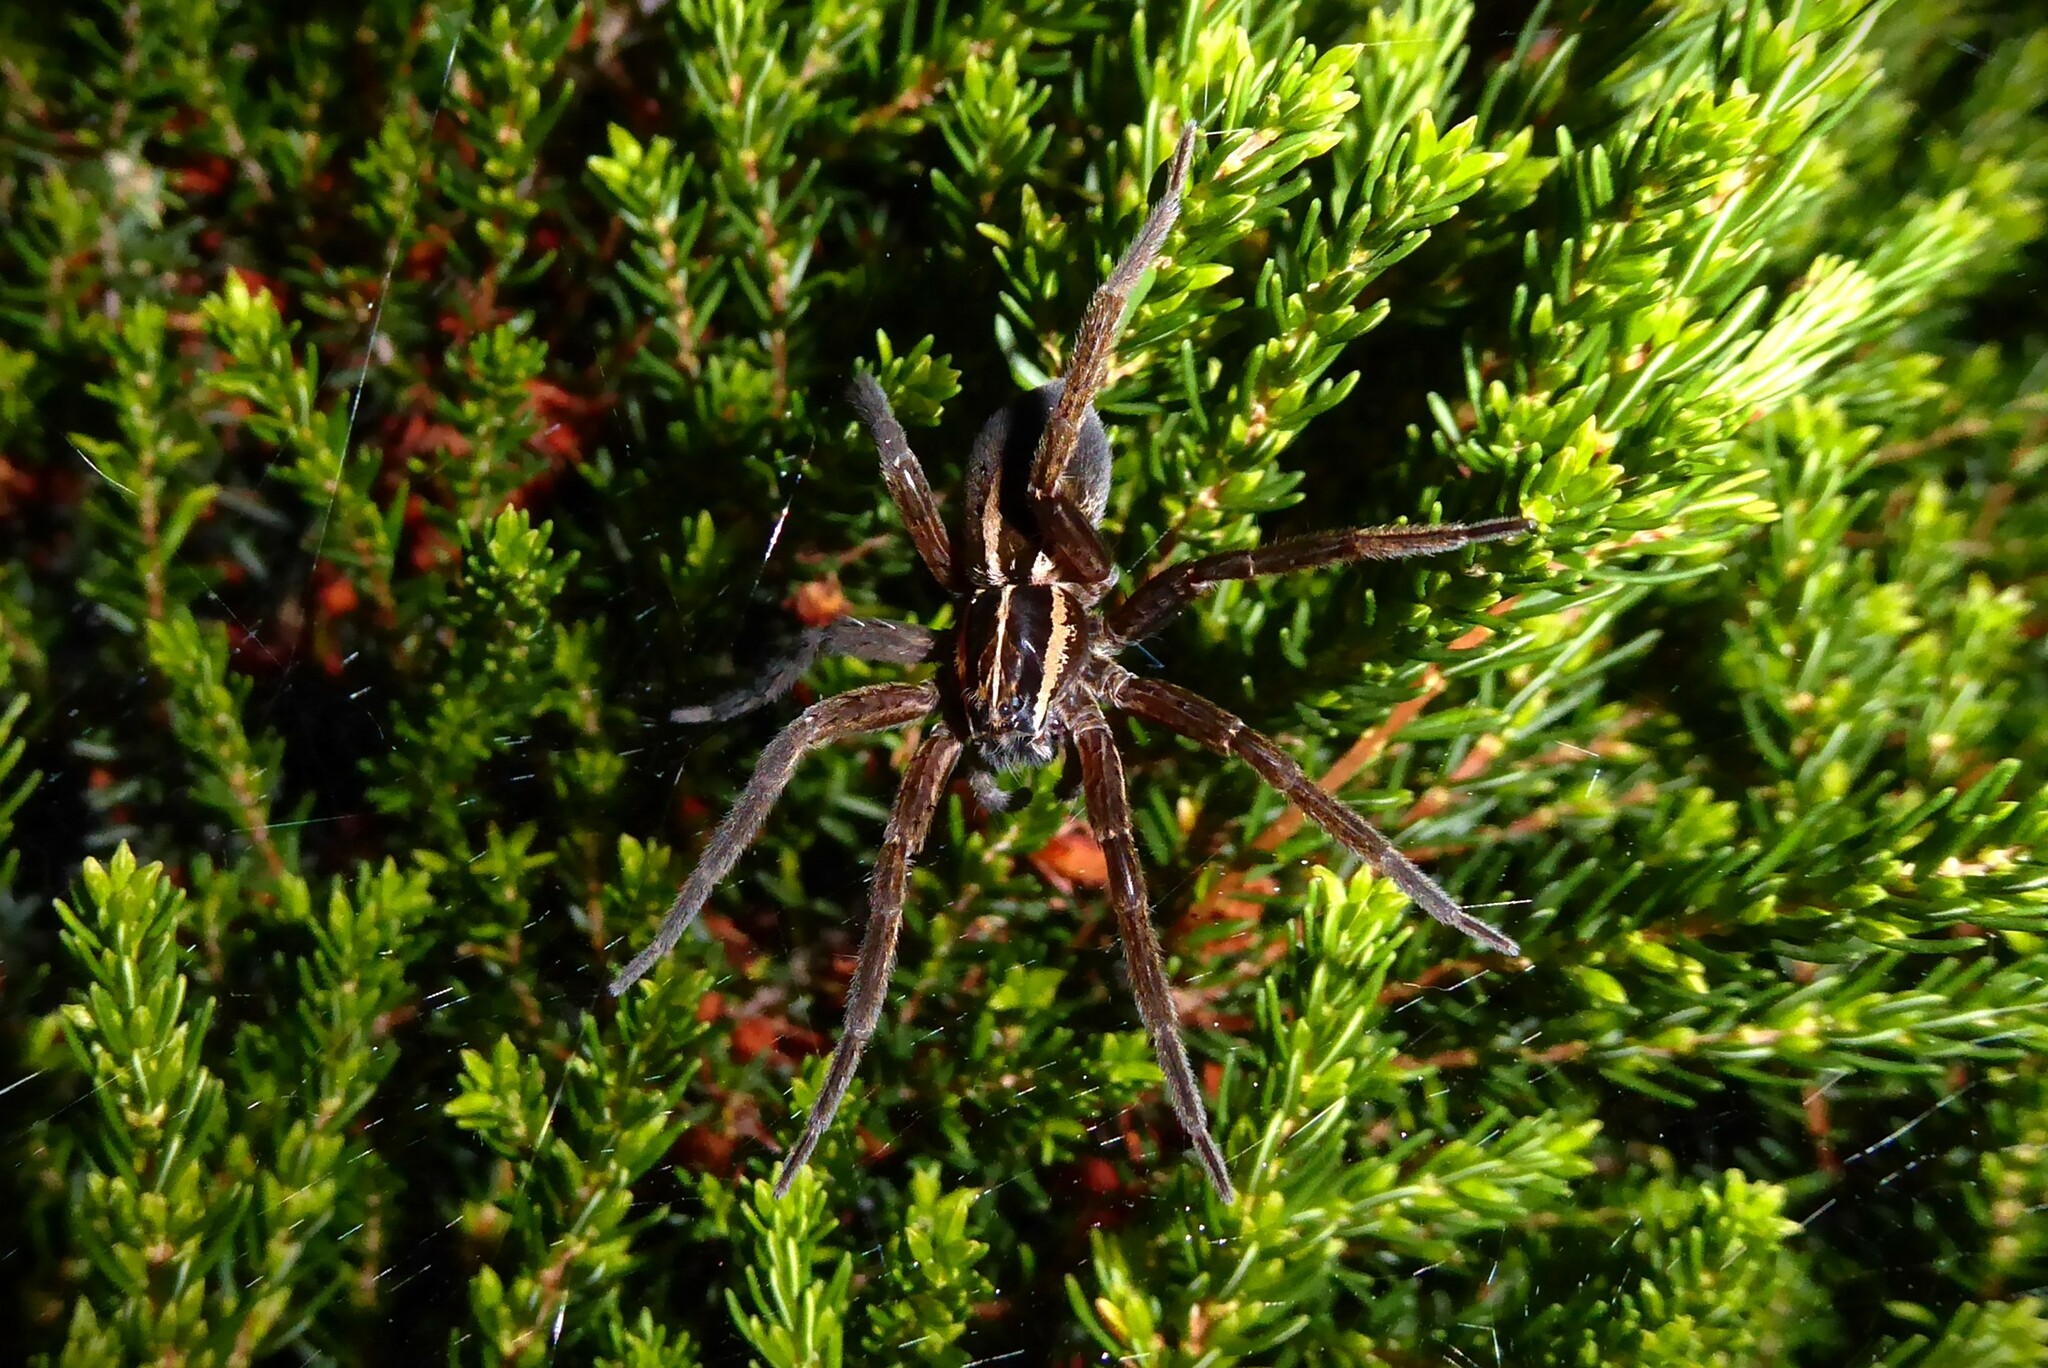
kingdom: Animalia
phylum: Arthropoda
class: Arachnida
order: Araneae
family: Pisauridae
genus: Dolomedes
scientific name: Dolomedes minor
